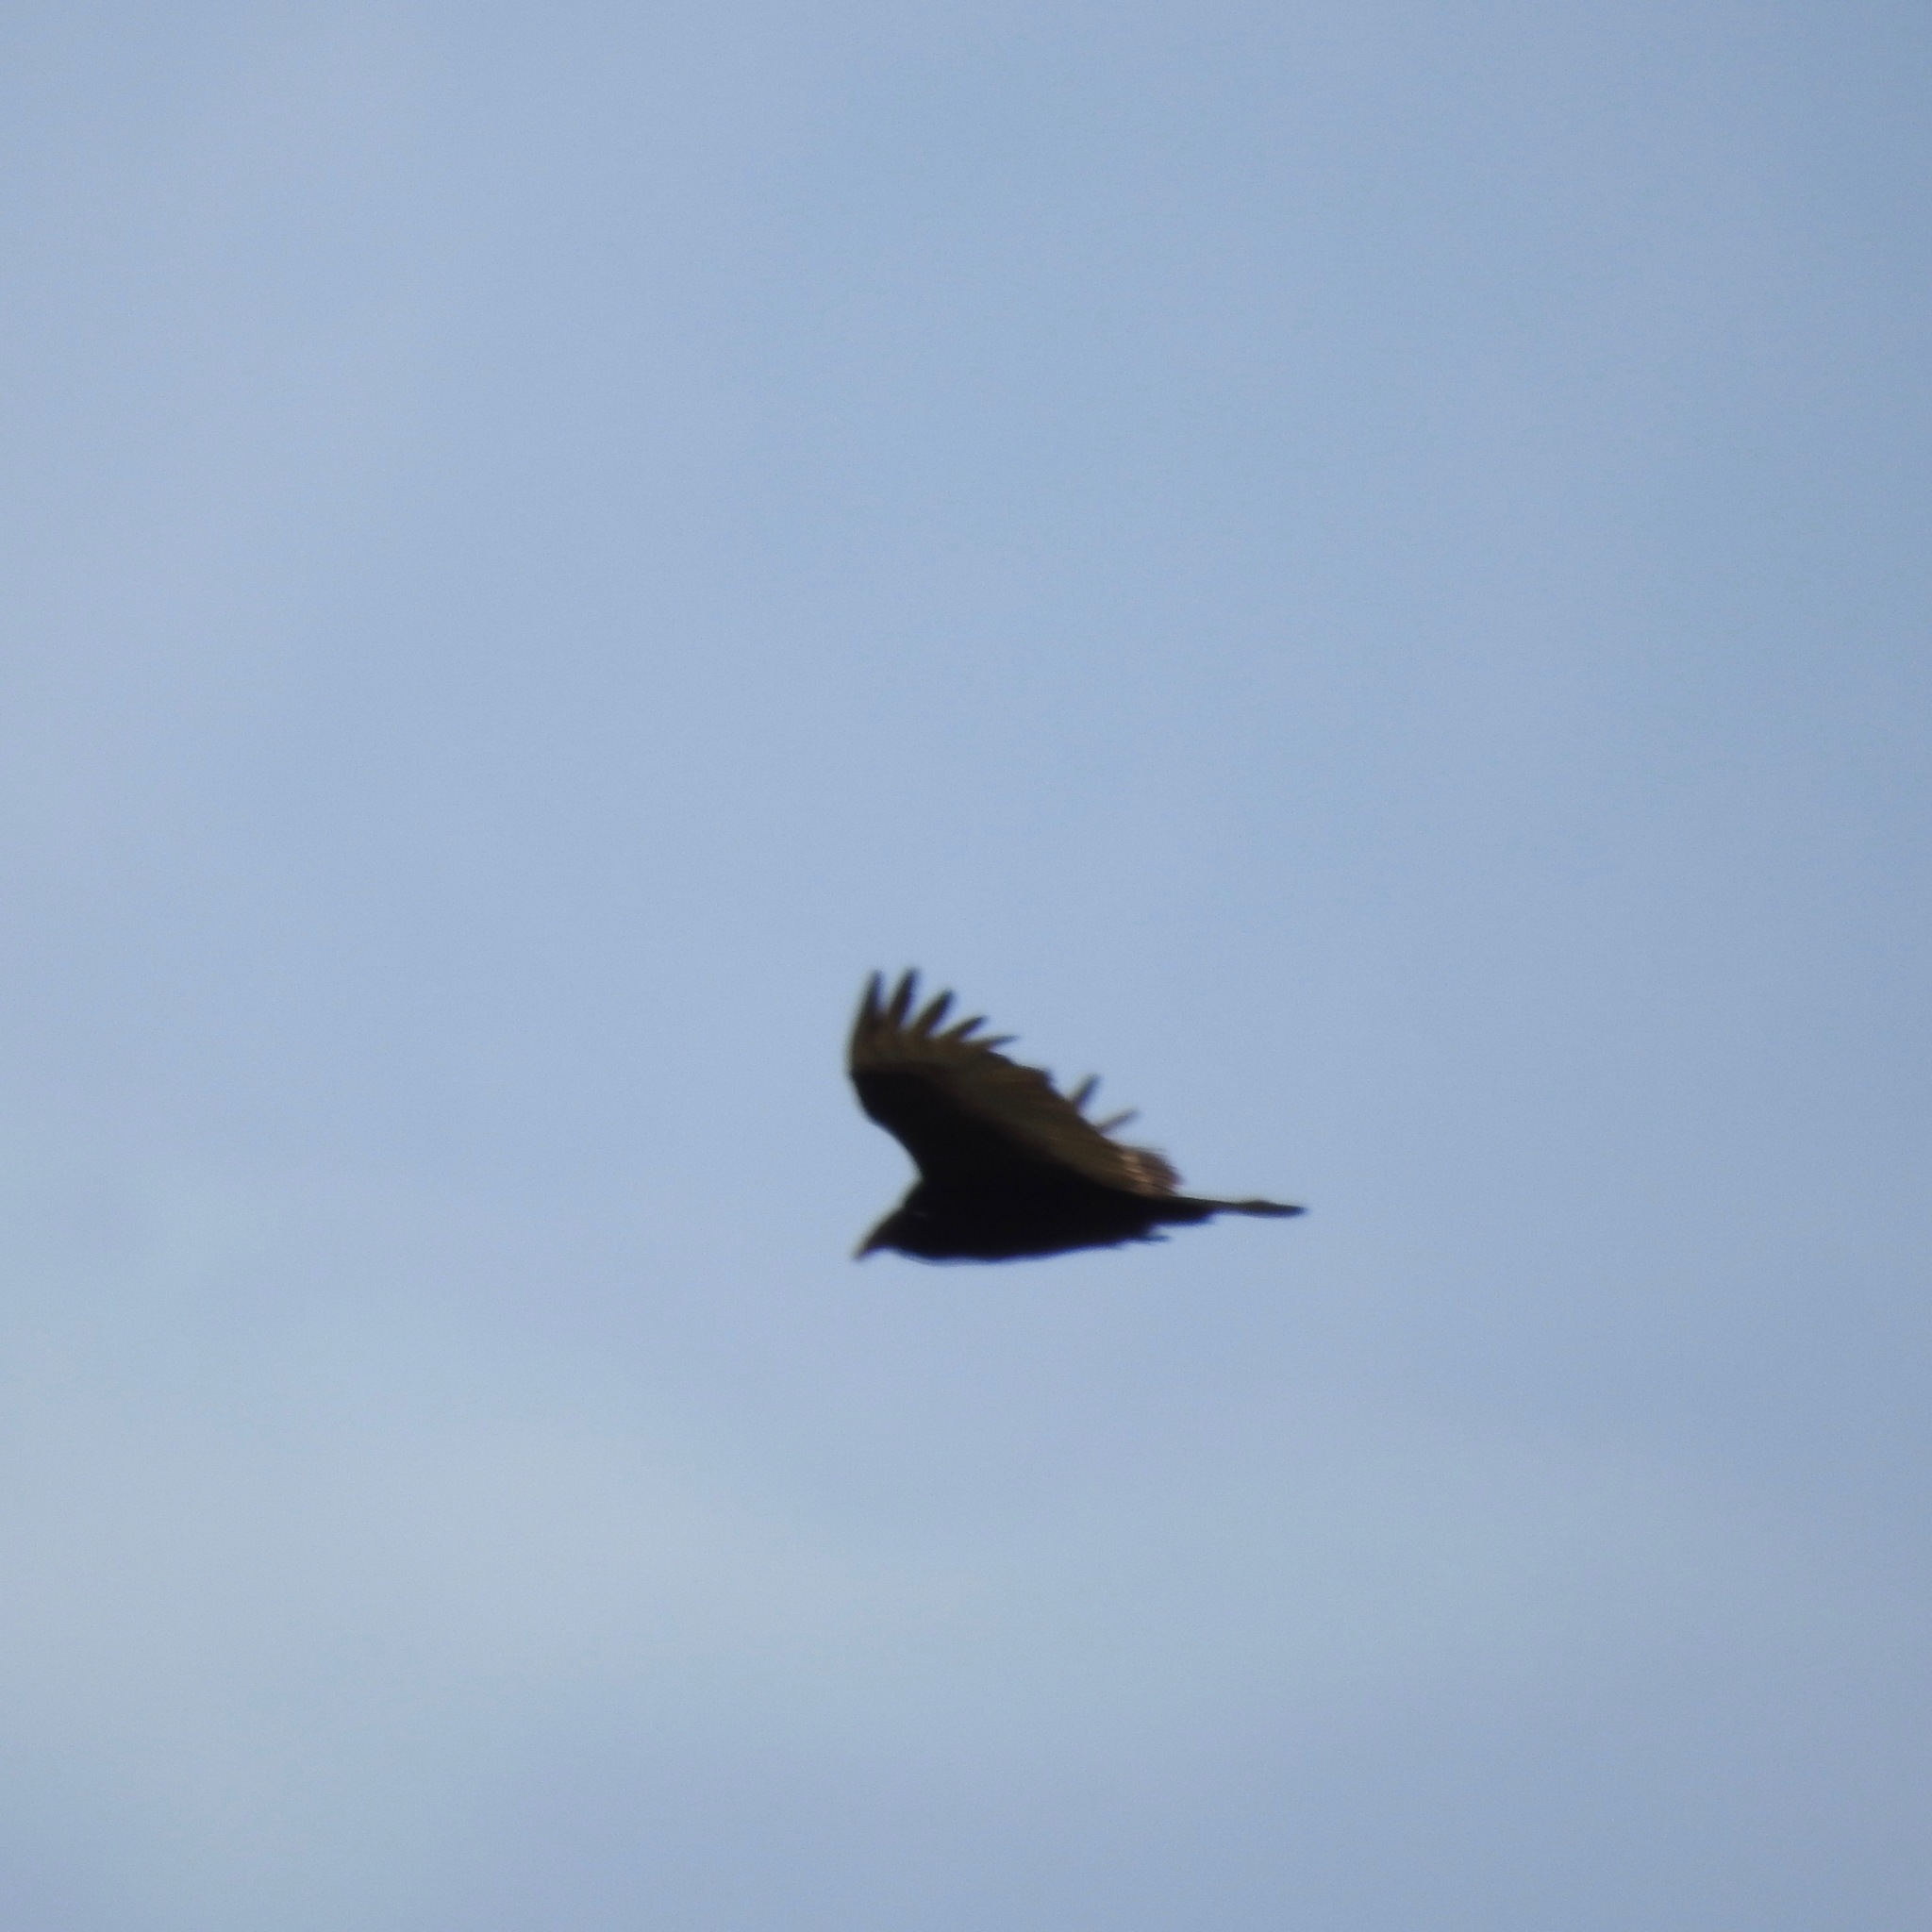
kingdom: Animalia
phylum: Chordata
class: Aves
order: Accipitriformes
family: Cathartidae
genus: Cathartes
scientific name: Cathartes aura
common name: Turkey vulture
